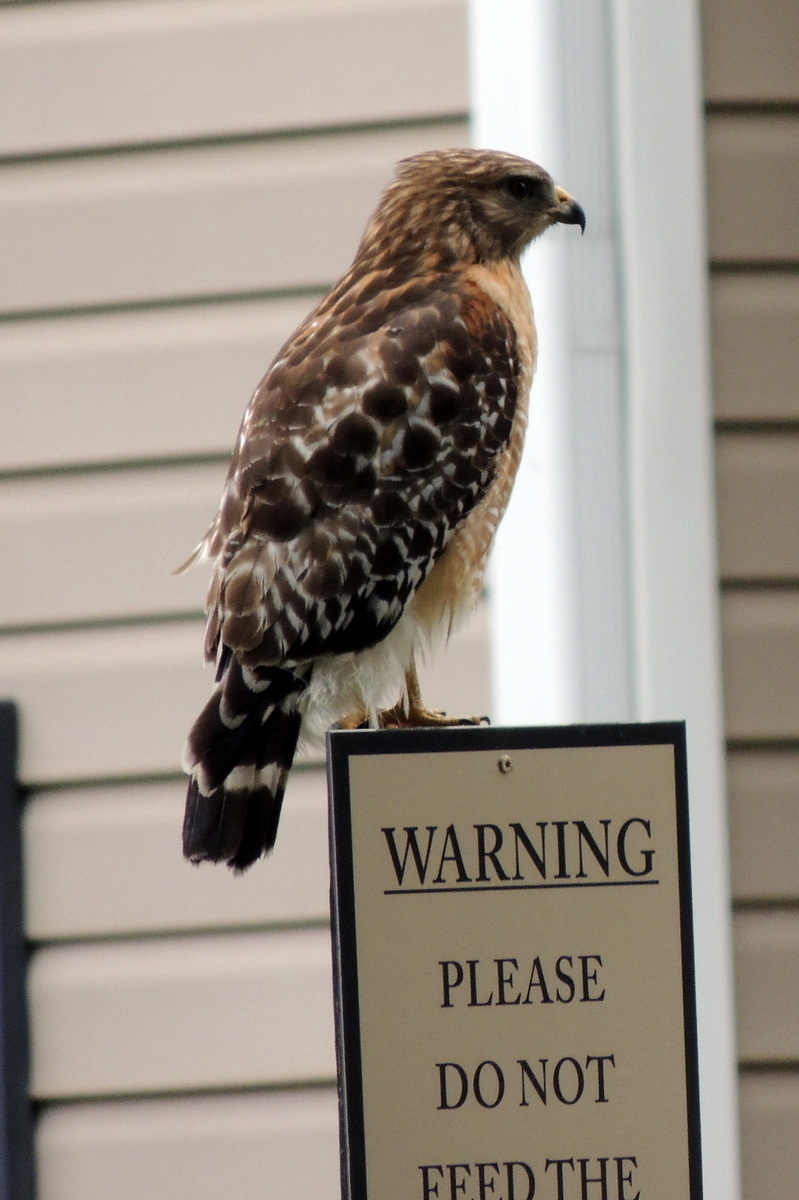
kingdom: Animalia
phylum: Chordata
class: Aves
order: Accipitriformes
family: Accipitridae
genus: Buteo
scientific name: Buteo lineatus
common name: Red-shouldered hawk
